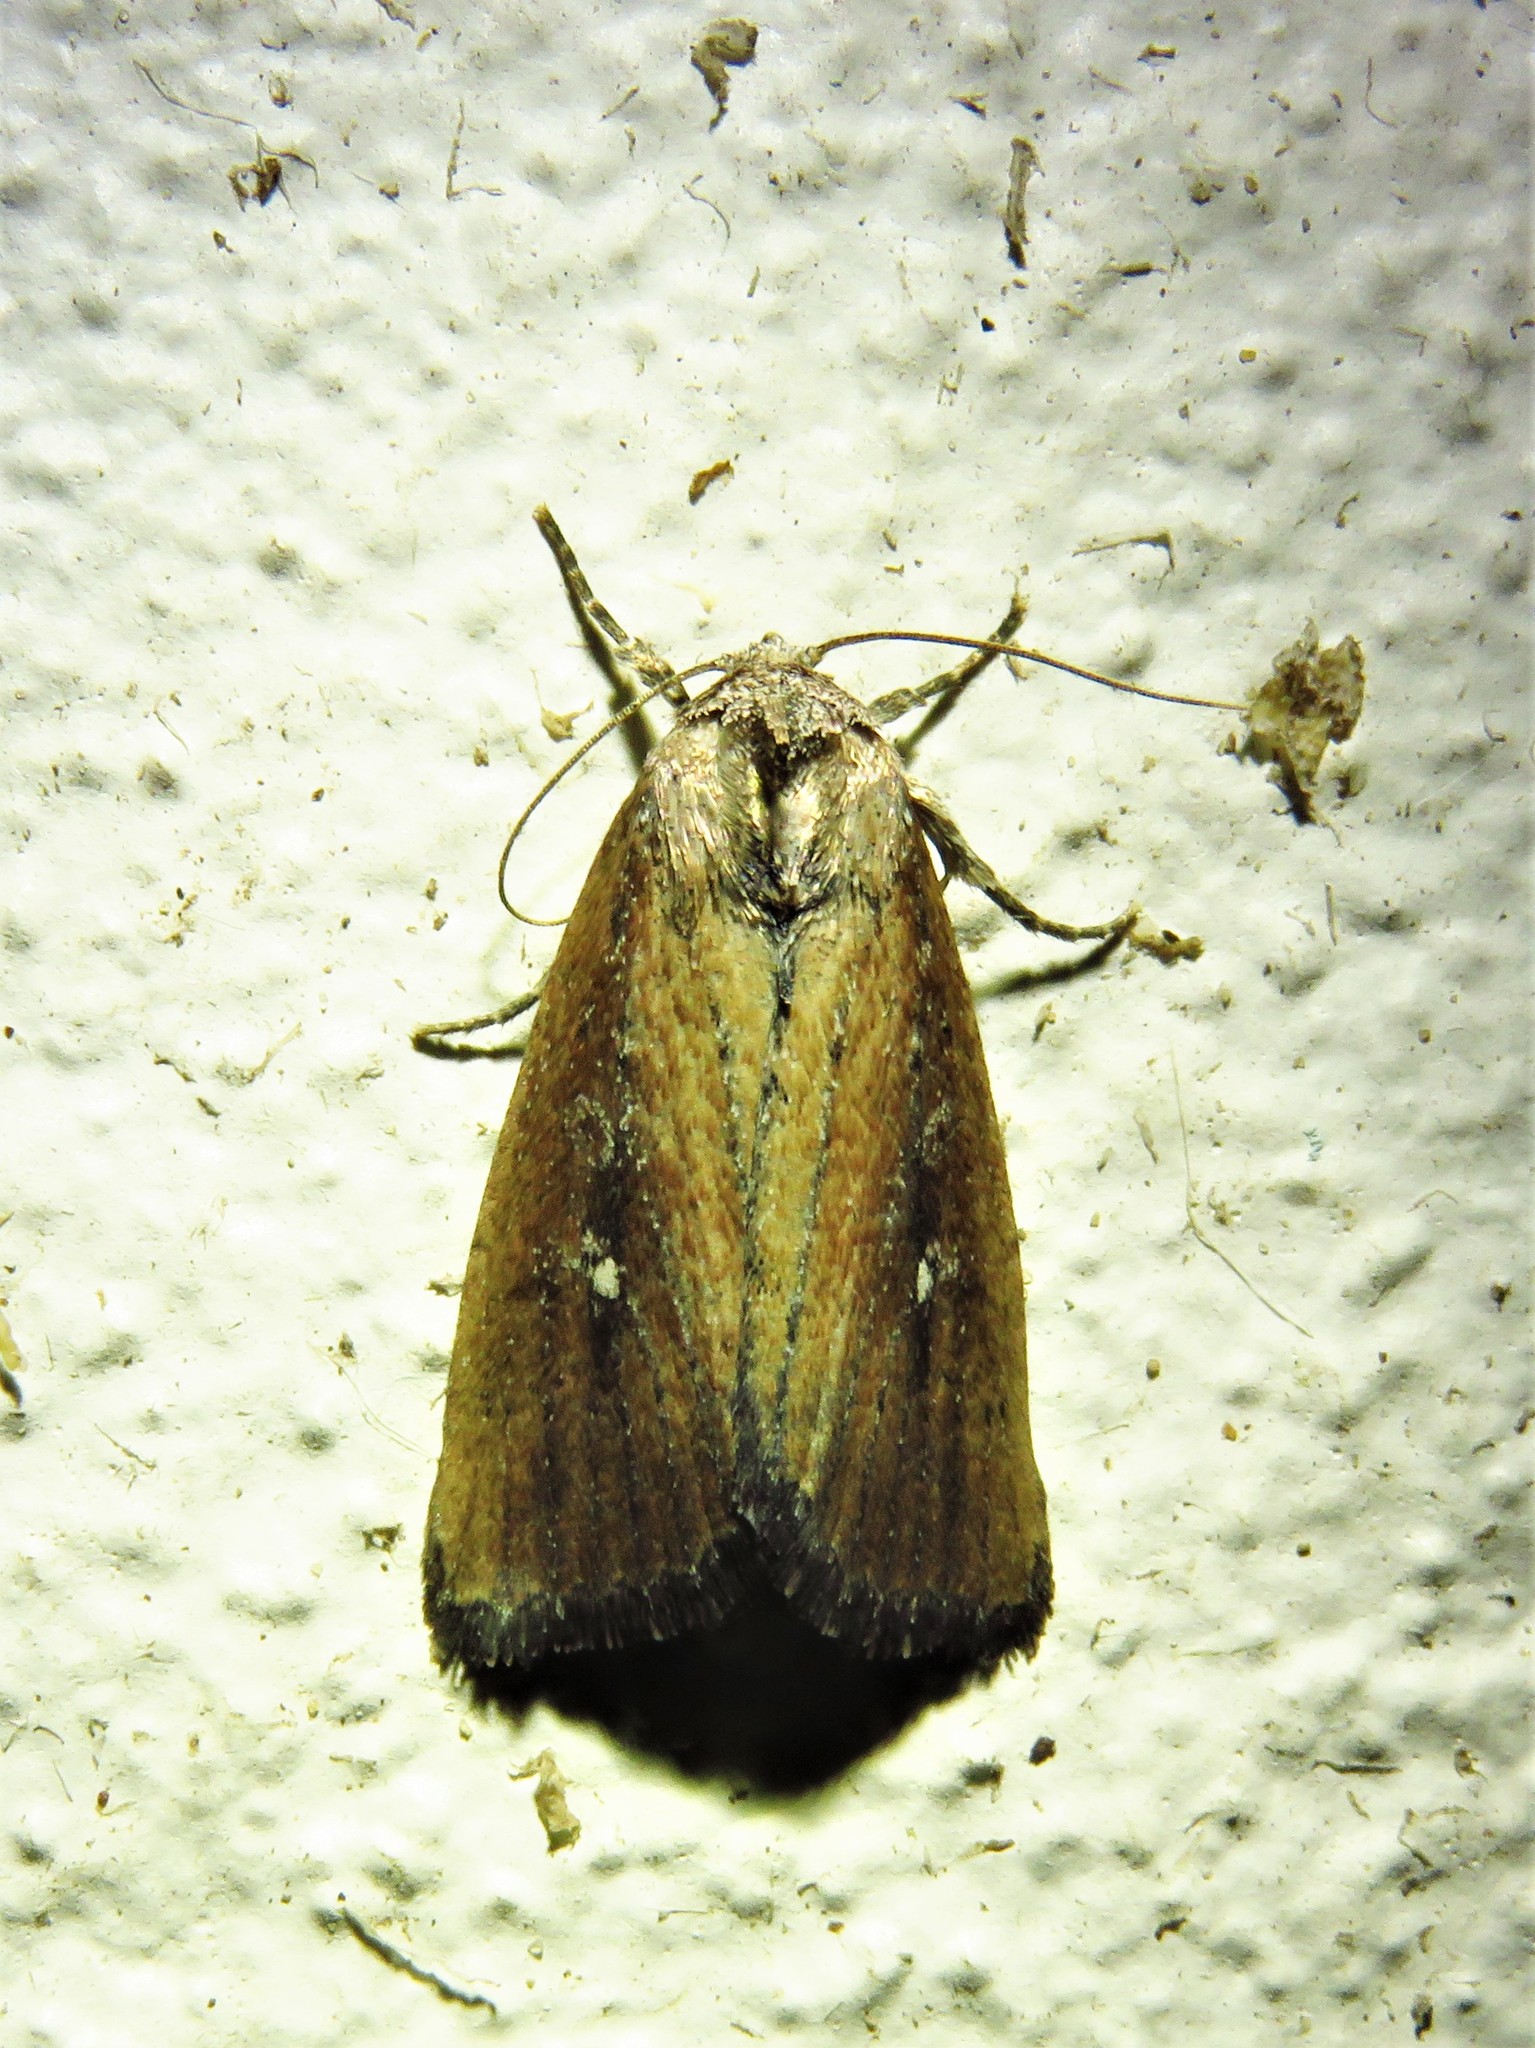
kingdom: Animalia
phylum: Arthropoda
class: Insecta
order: Lepidoptera
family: Noctuidae
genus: Condica
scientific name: Condica videns
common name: White-dotted groundling
